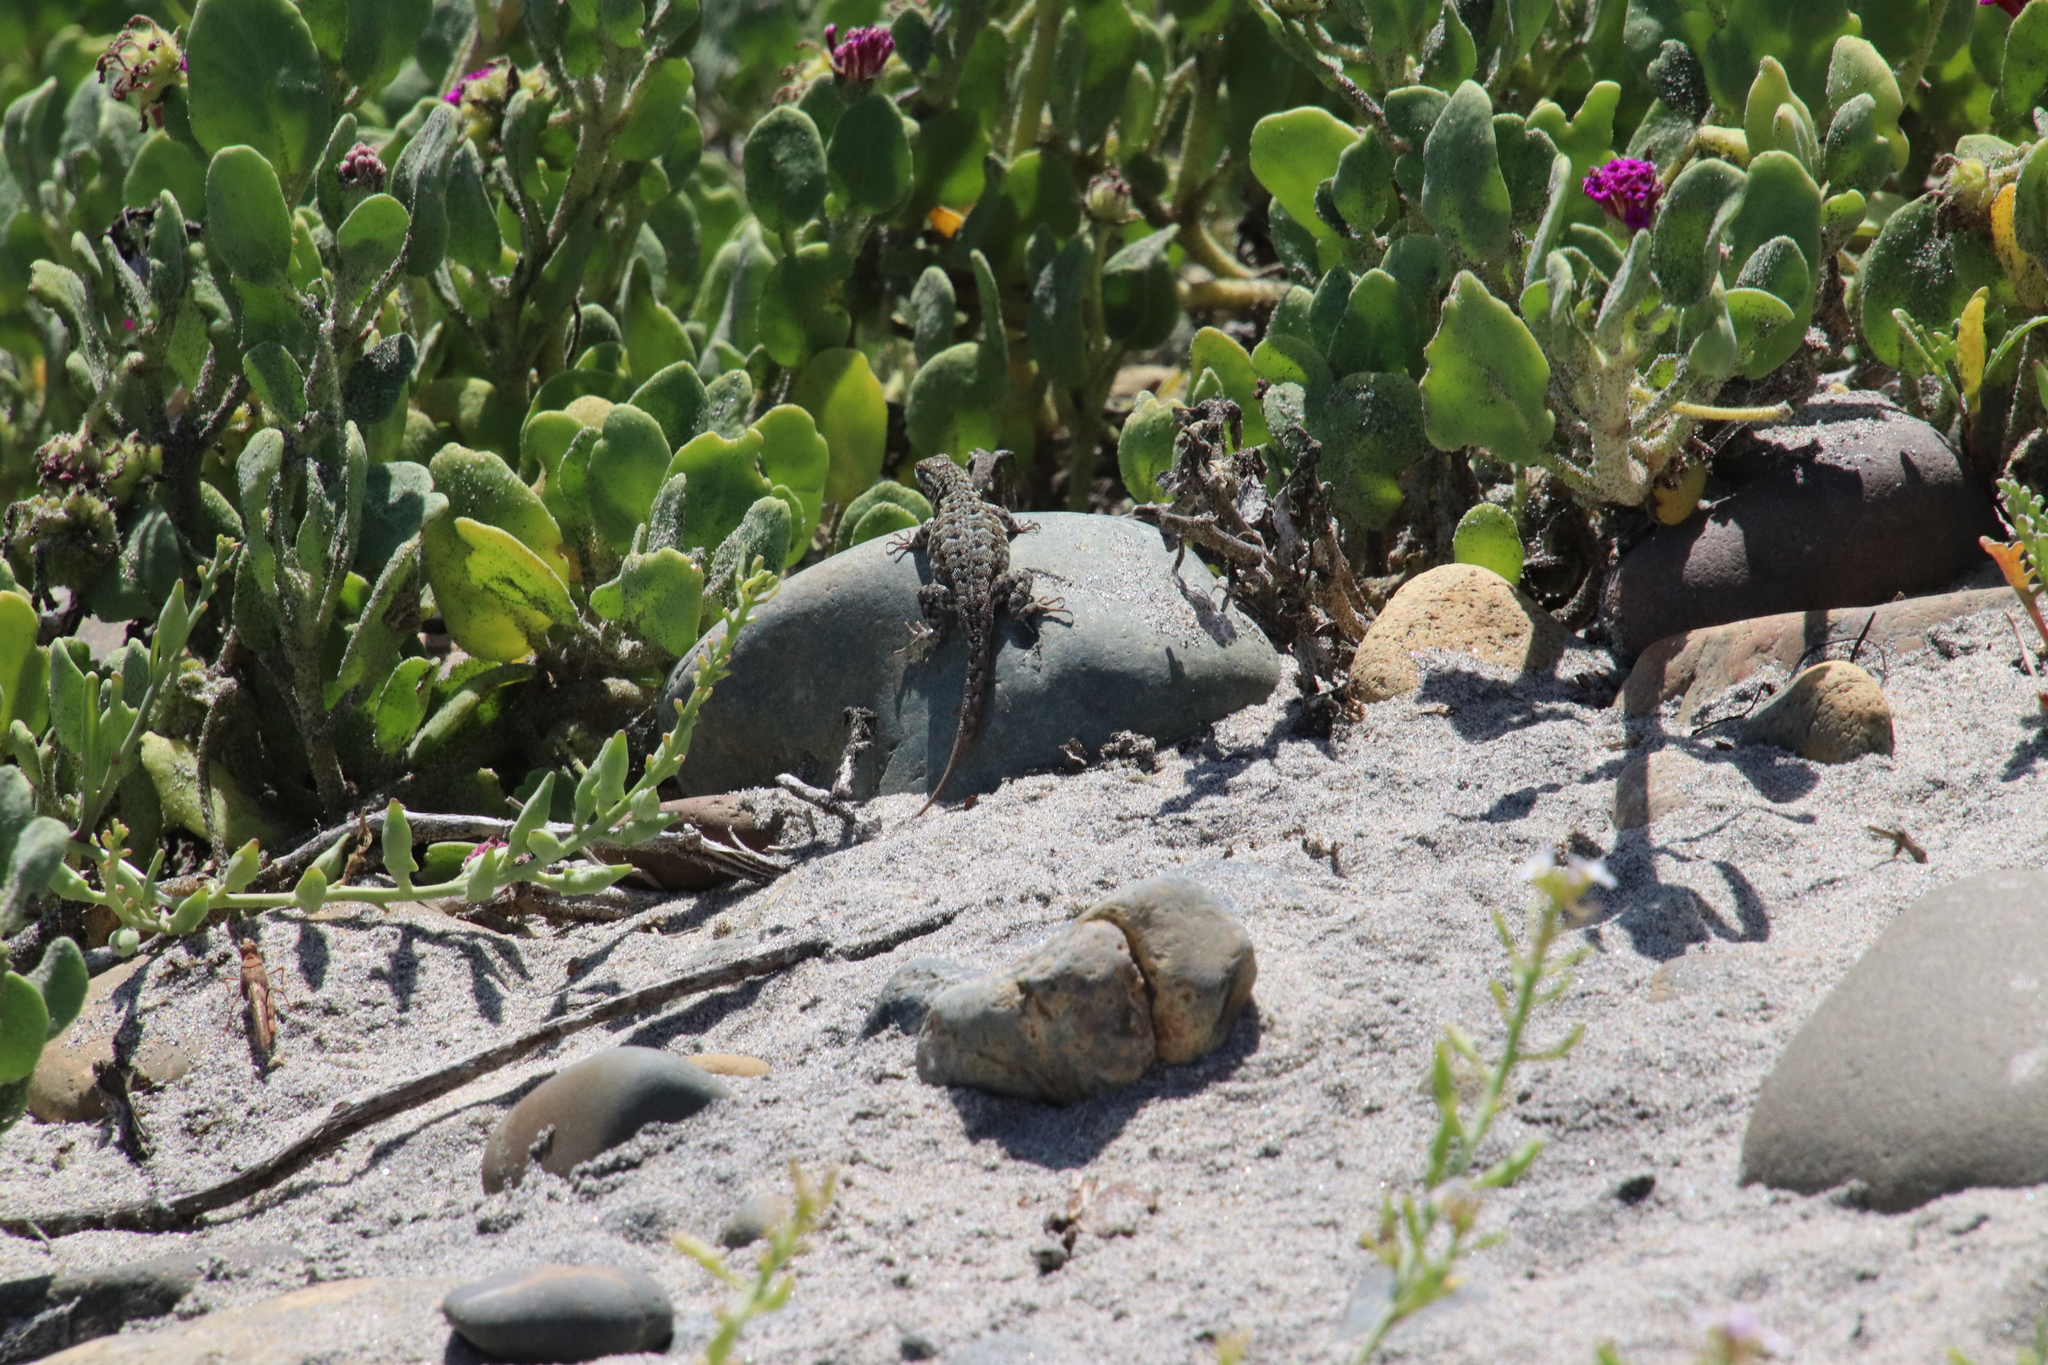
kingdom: Animalia
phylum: Chordata
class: Squamata
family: Phrynosomatidae
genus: Uta
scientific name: Uta stansburiana
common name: Side-blotched lizard
